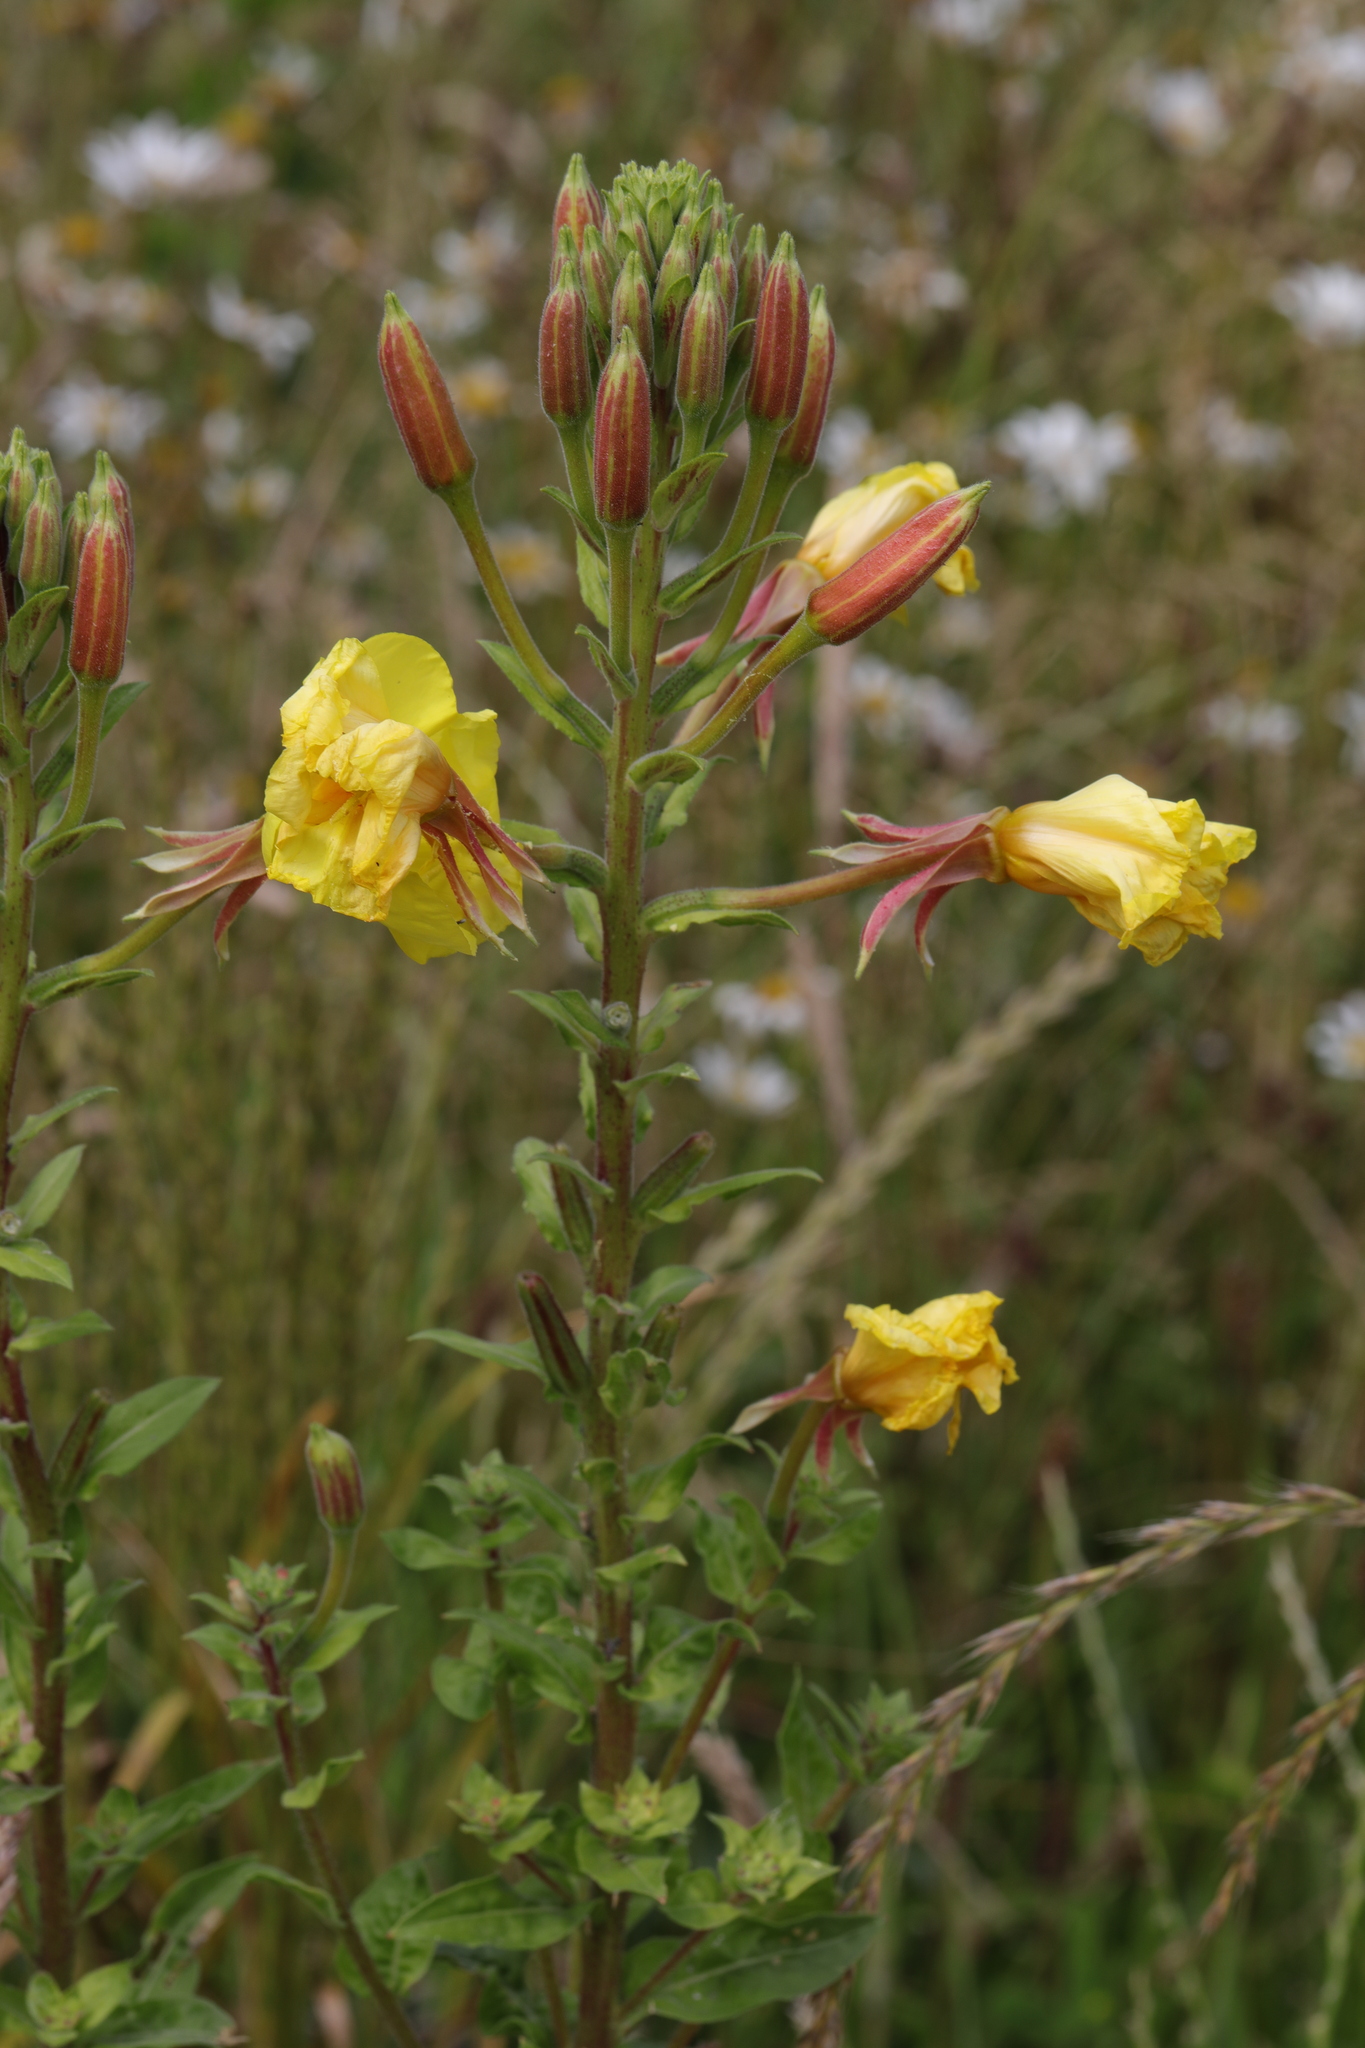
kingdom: Plantae
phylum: Tracheophyta
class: Magnoliopsida
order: Myrtales
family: Onagraceae
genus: Oenothera
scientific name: Oenothera biennis
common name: Common evening-primrose
